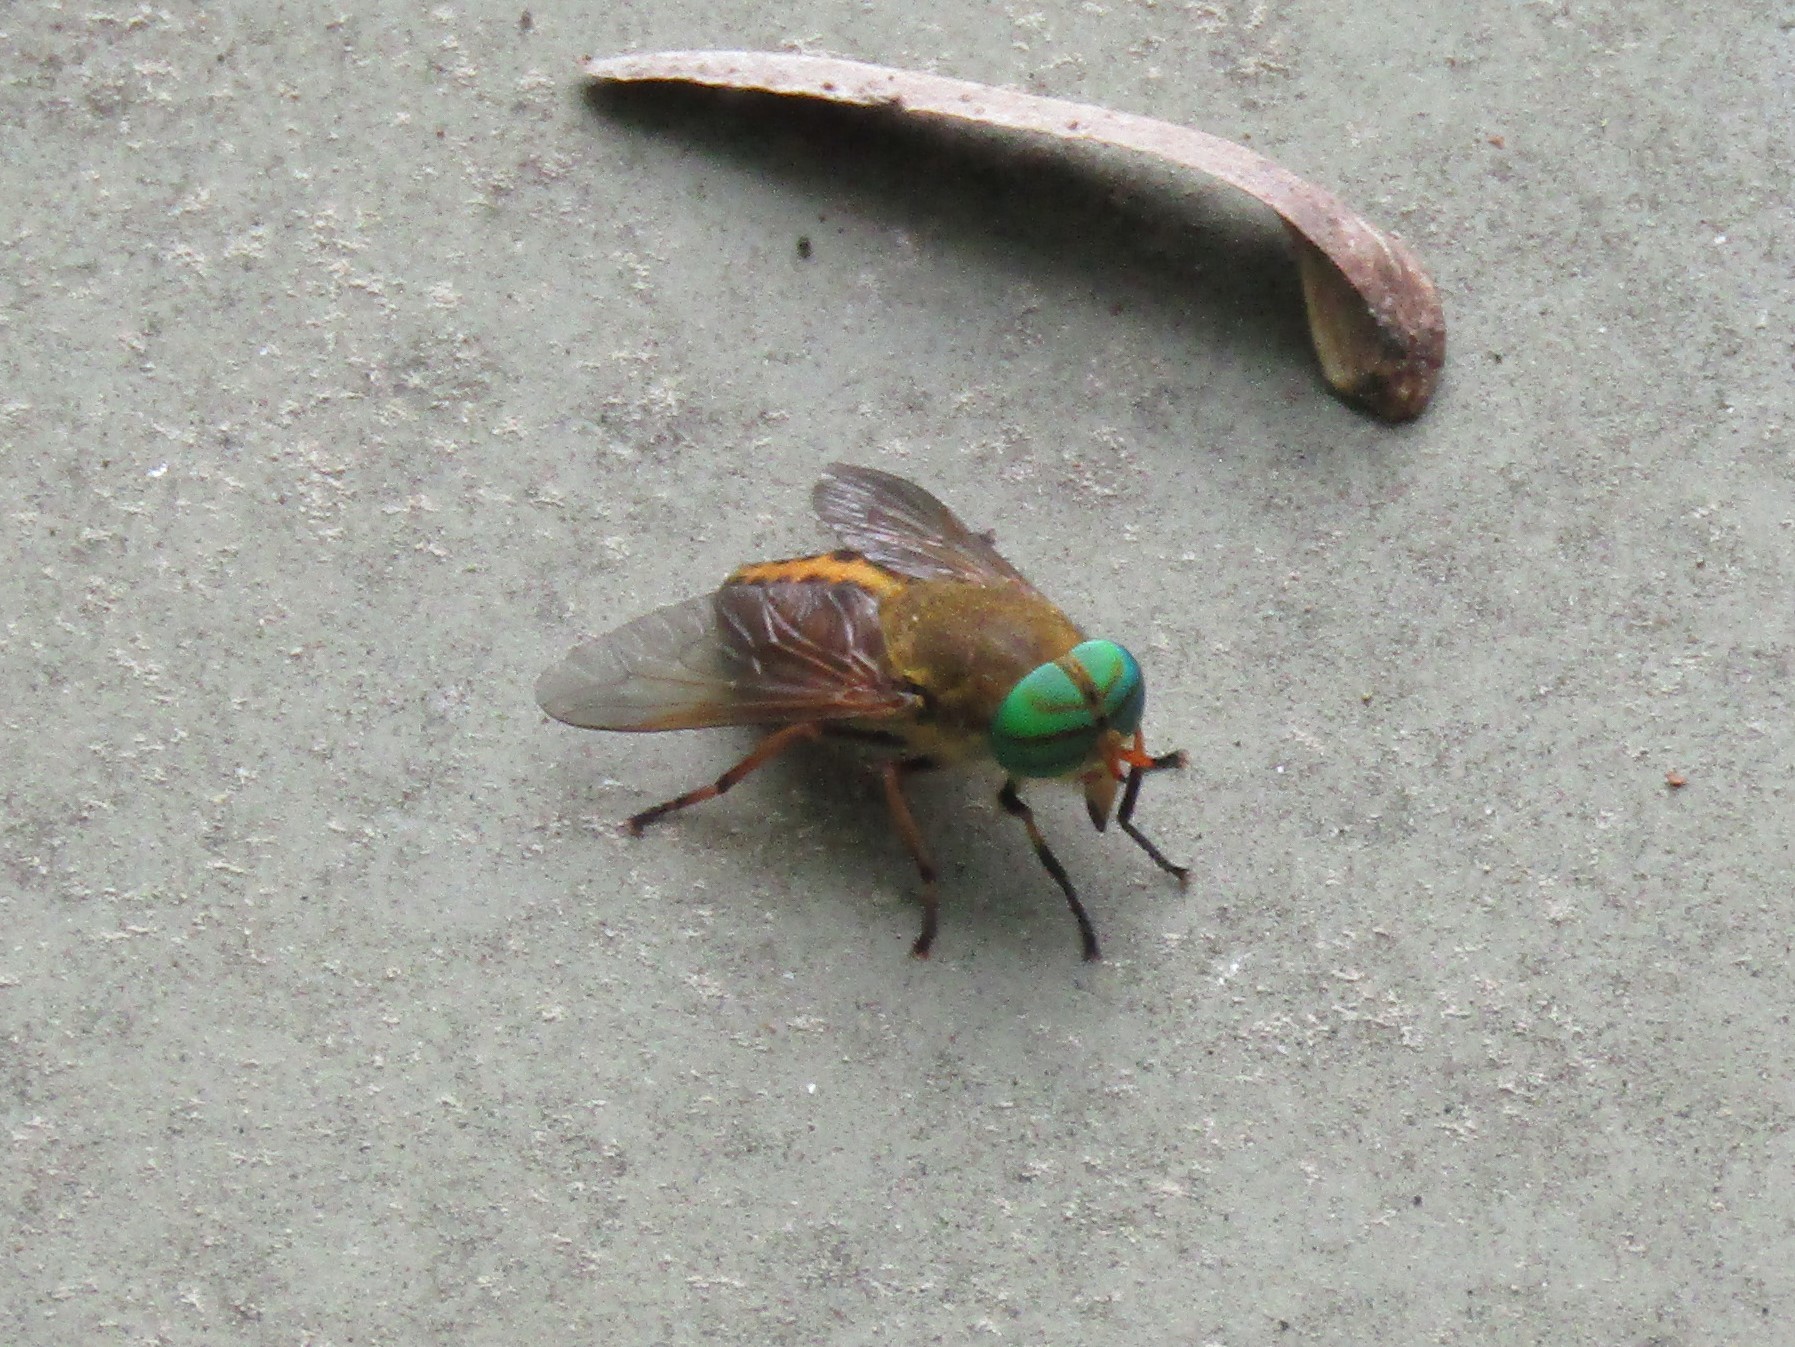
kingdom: Animalia
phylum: Arthropoda
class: Insecta
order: Diptera
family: Tabanidae
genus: Tabanus
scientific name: Tabanus fulvulus
